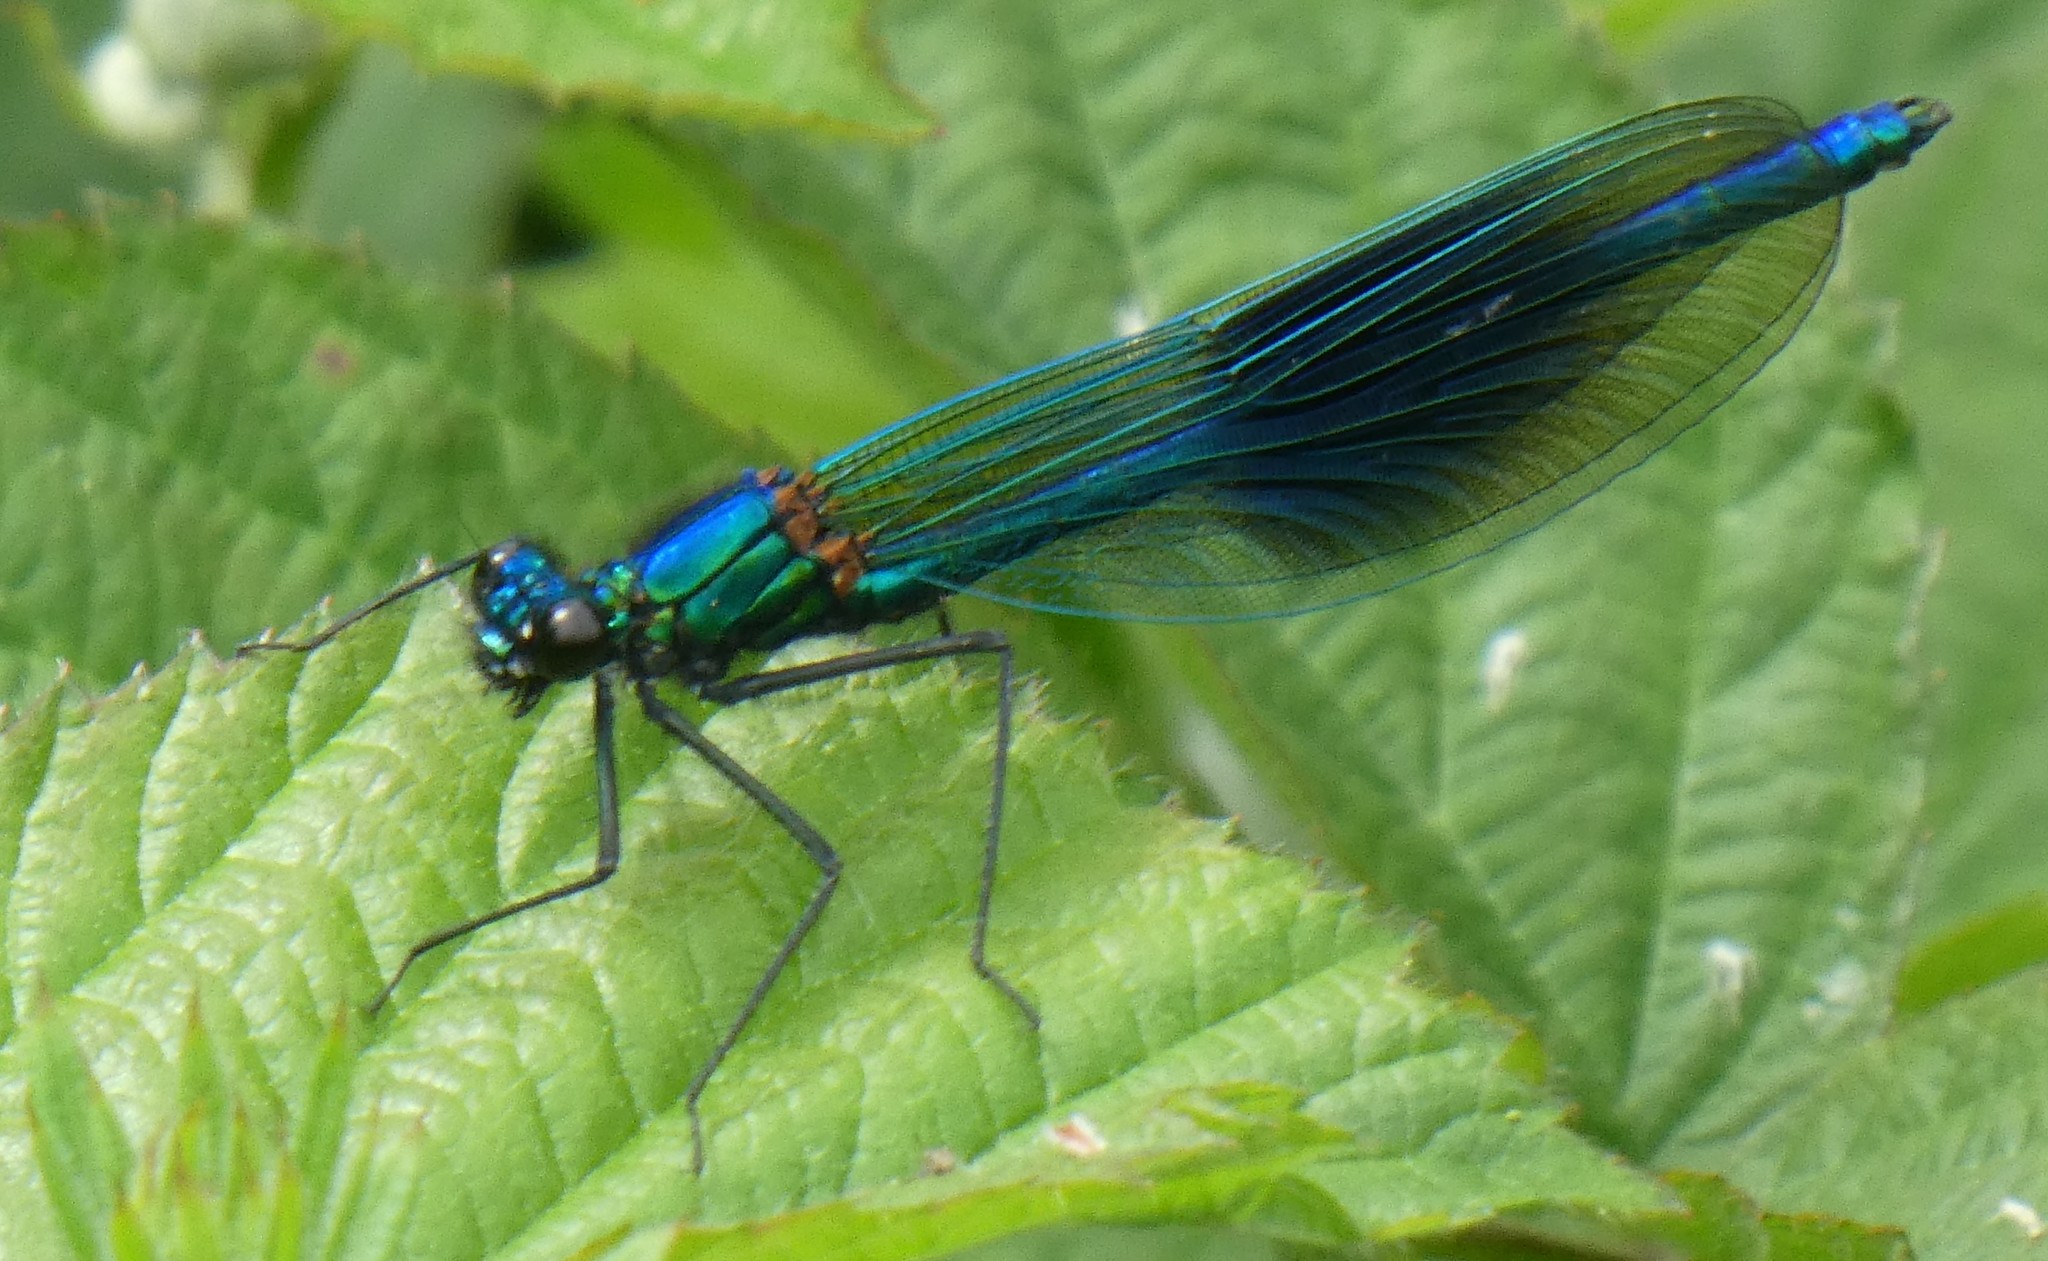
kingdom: Animalia
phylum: Arthropoda
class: Insecta
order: Odonata
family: Calopterygidae
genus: Calopteryx
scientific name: Calopteryx splendens
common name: Banded demoiselle
